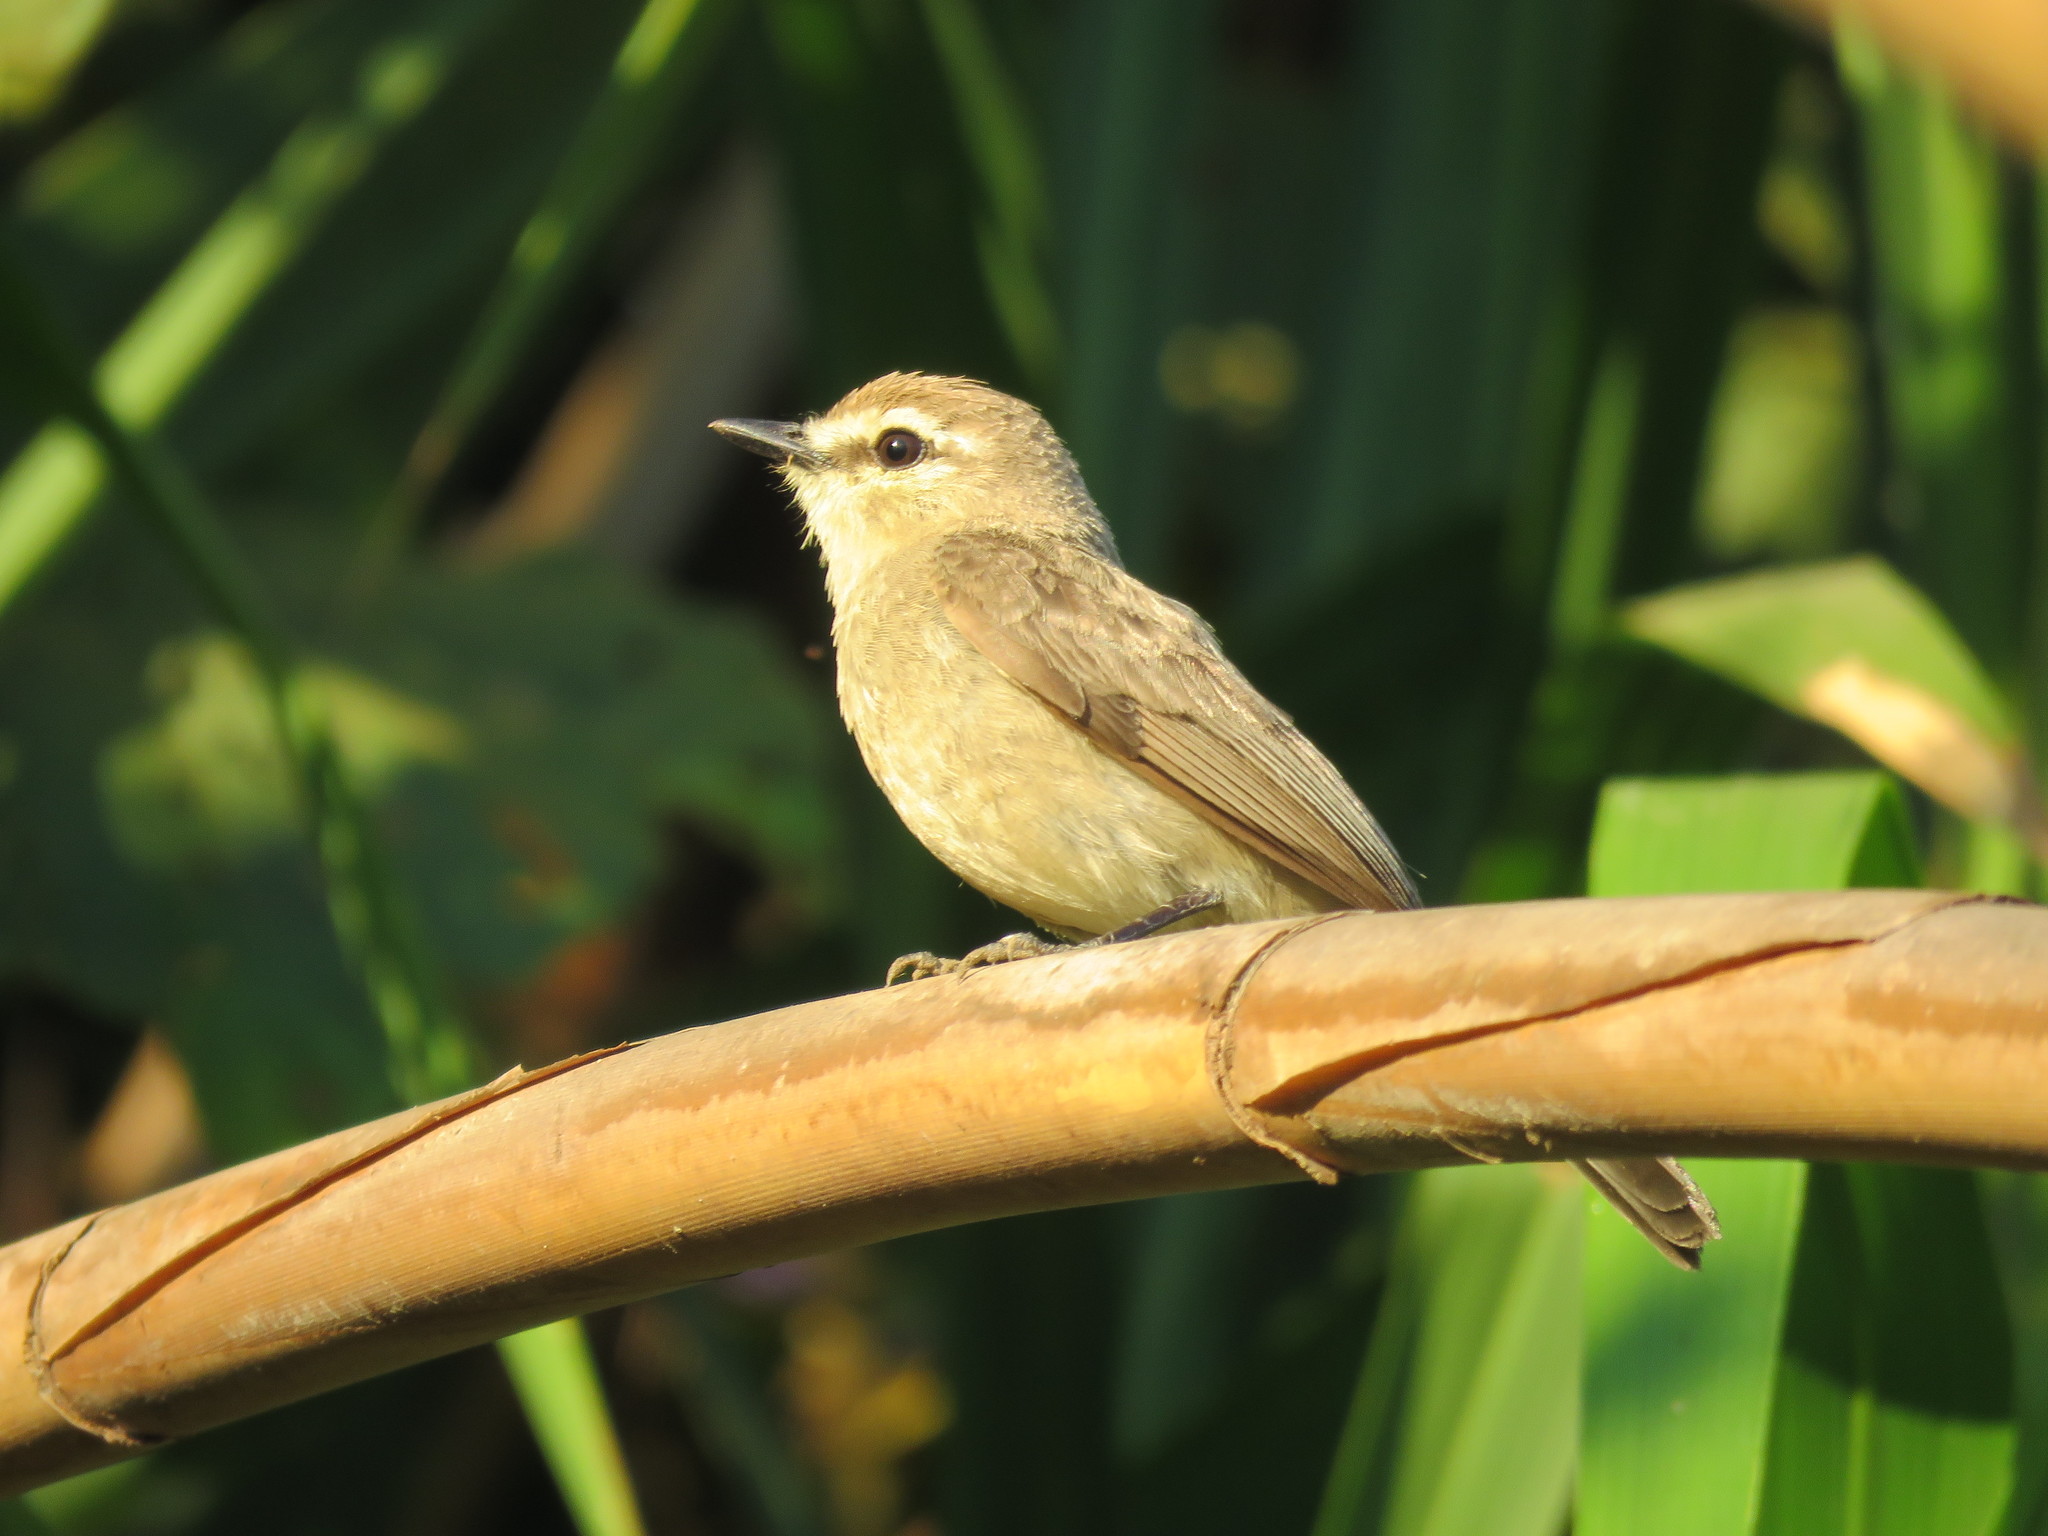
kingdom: Animalia
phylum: Chordata
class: Aves
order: Passeriformes
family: Tyrannidae
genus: Ochthornis
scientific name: Ochthornis littoralis
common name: Drab water tyrant
